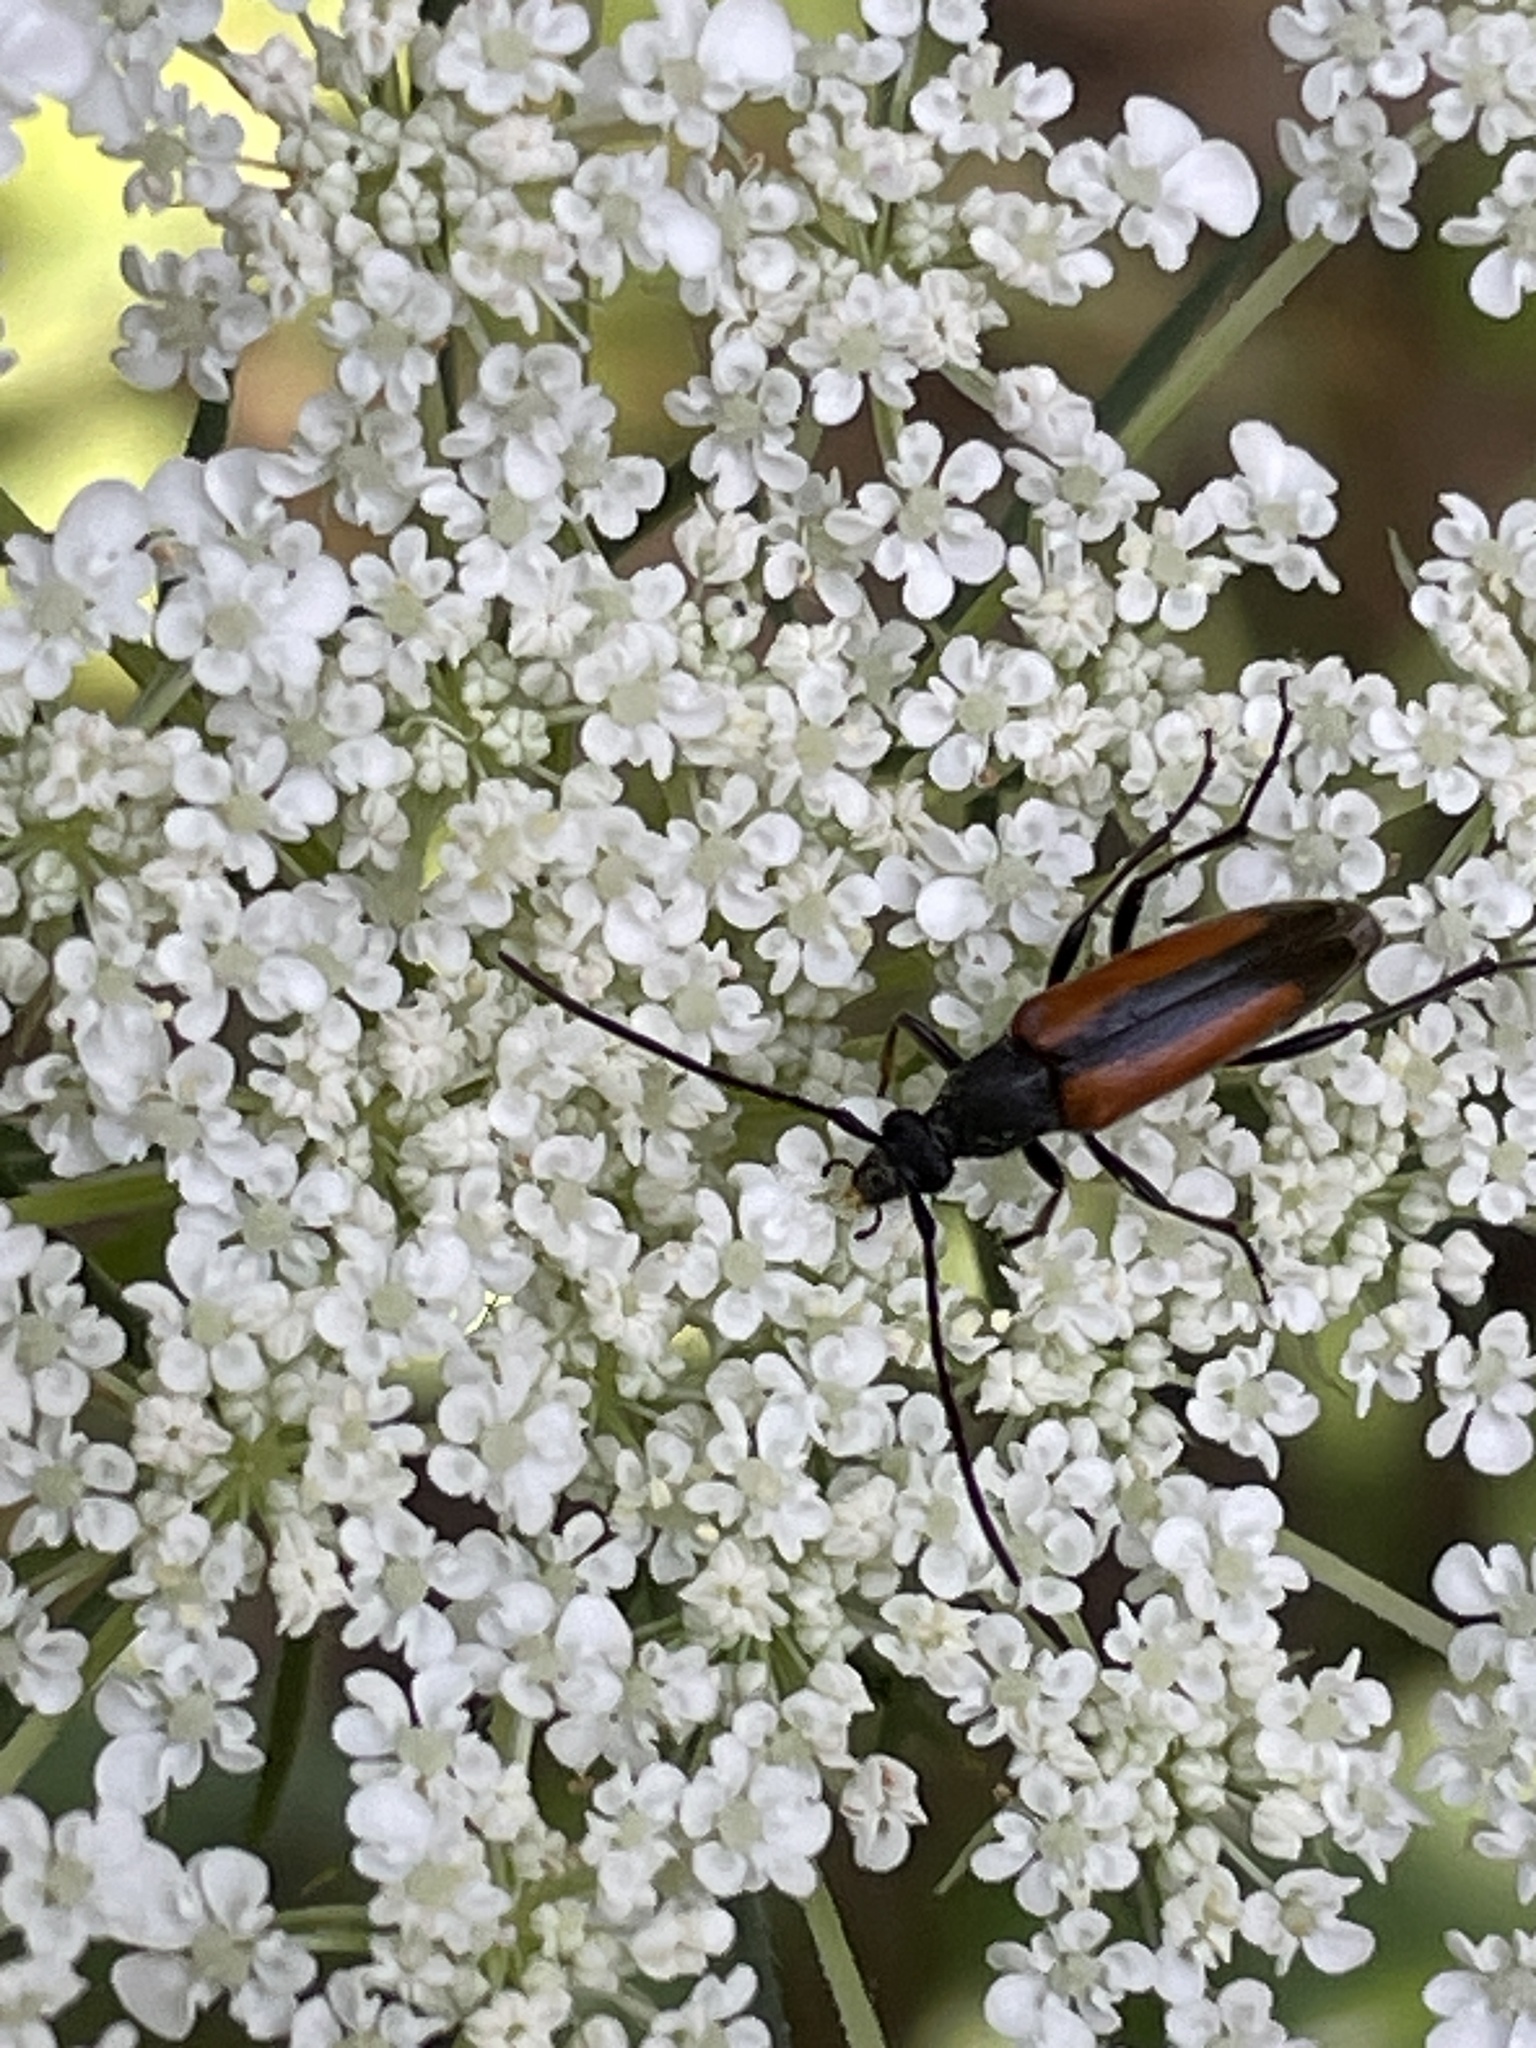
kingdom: Animalia
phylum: Arthropoda
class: Insecta
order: Coleoptera
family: Cerambycidae
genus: Stenurella
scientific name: Stenurella melanura
